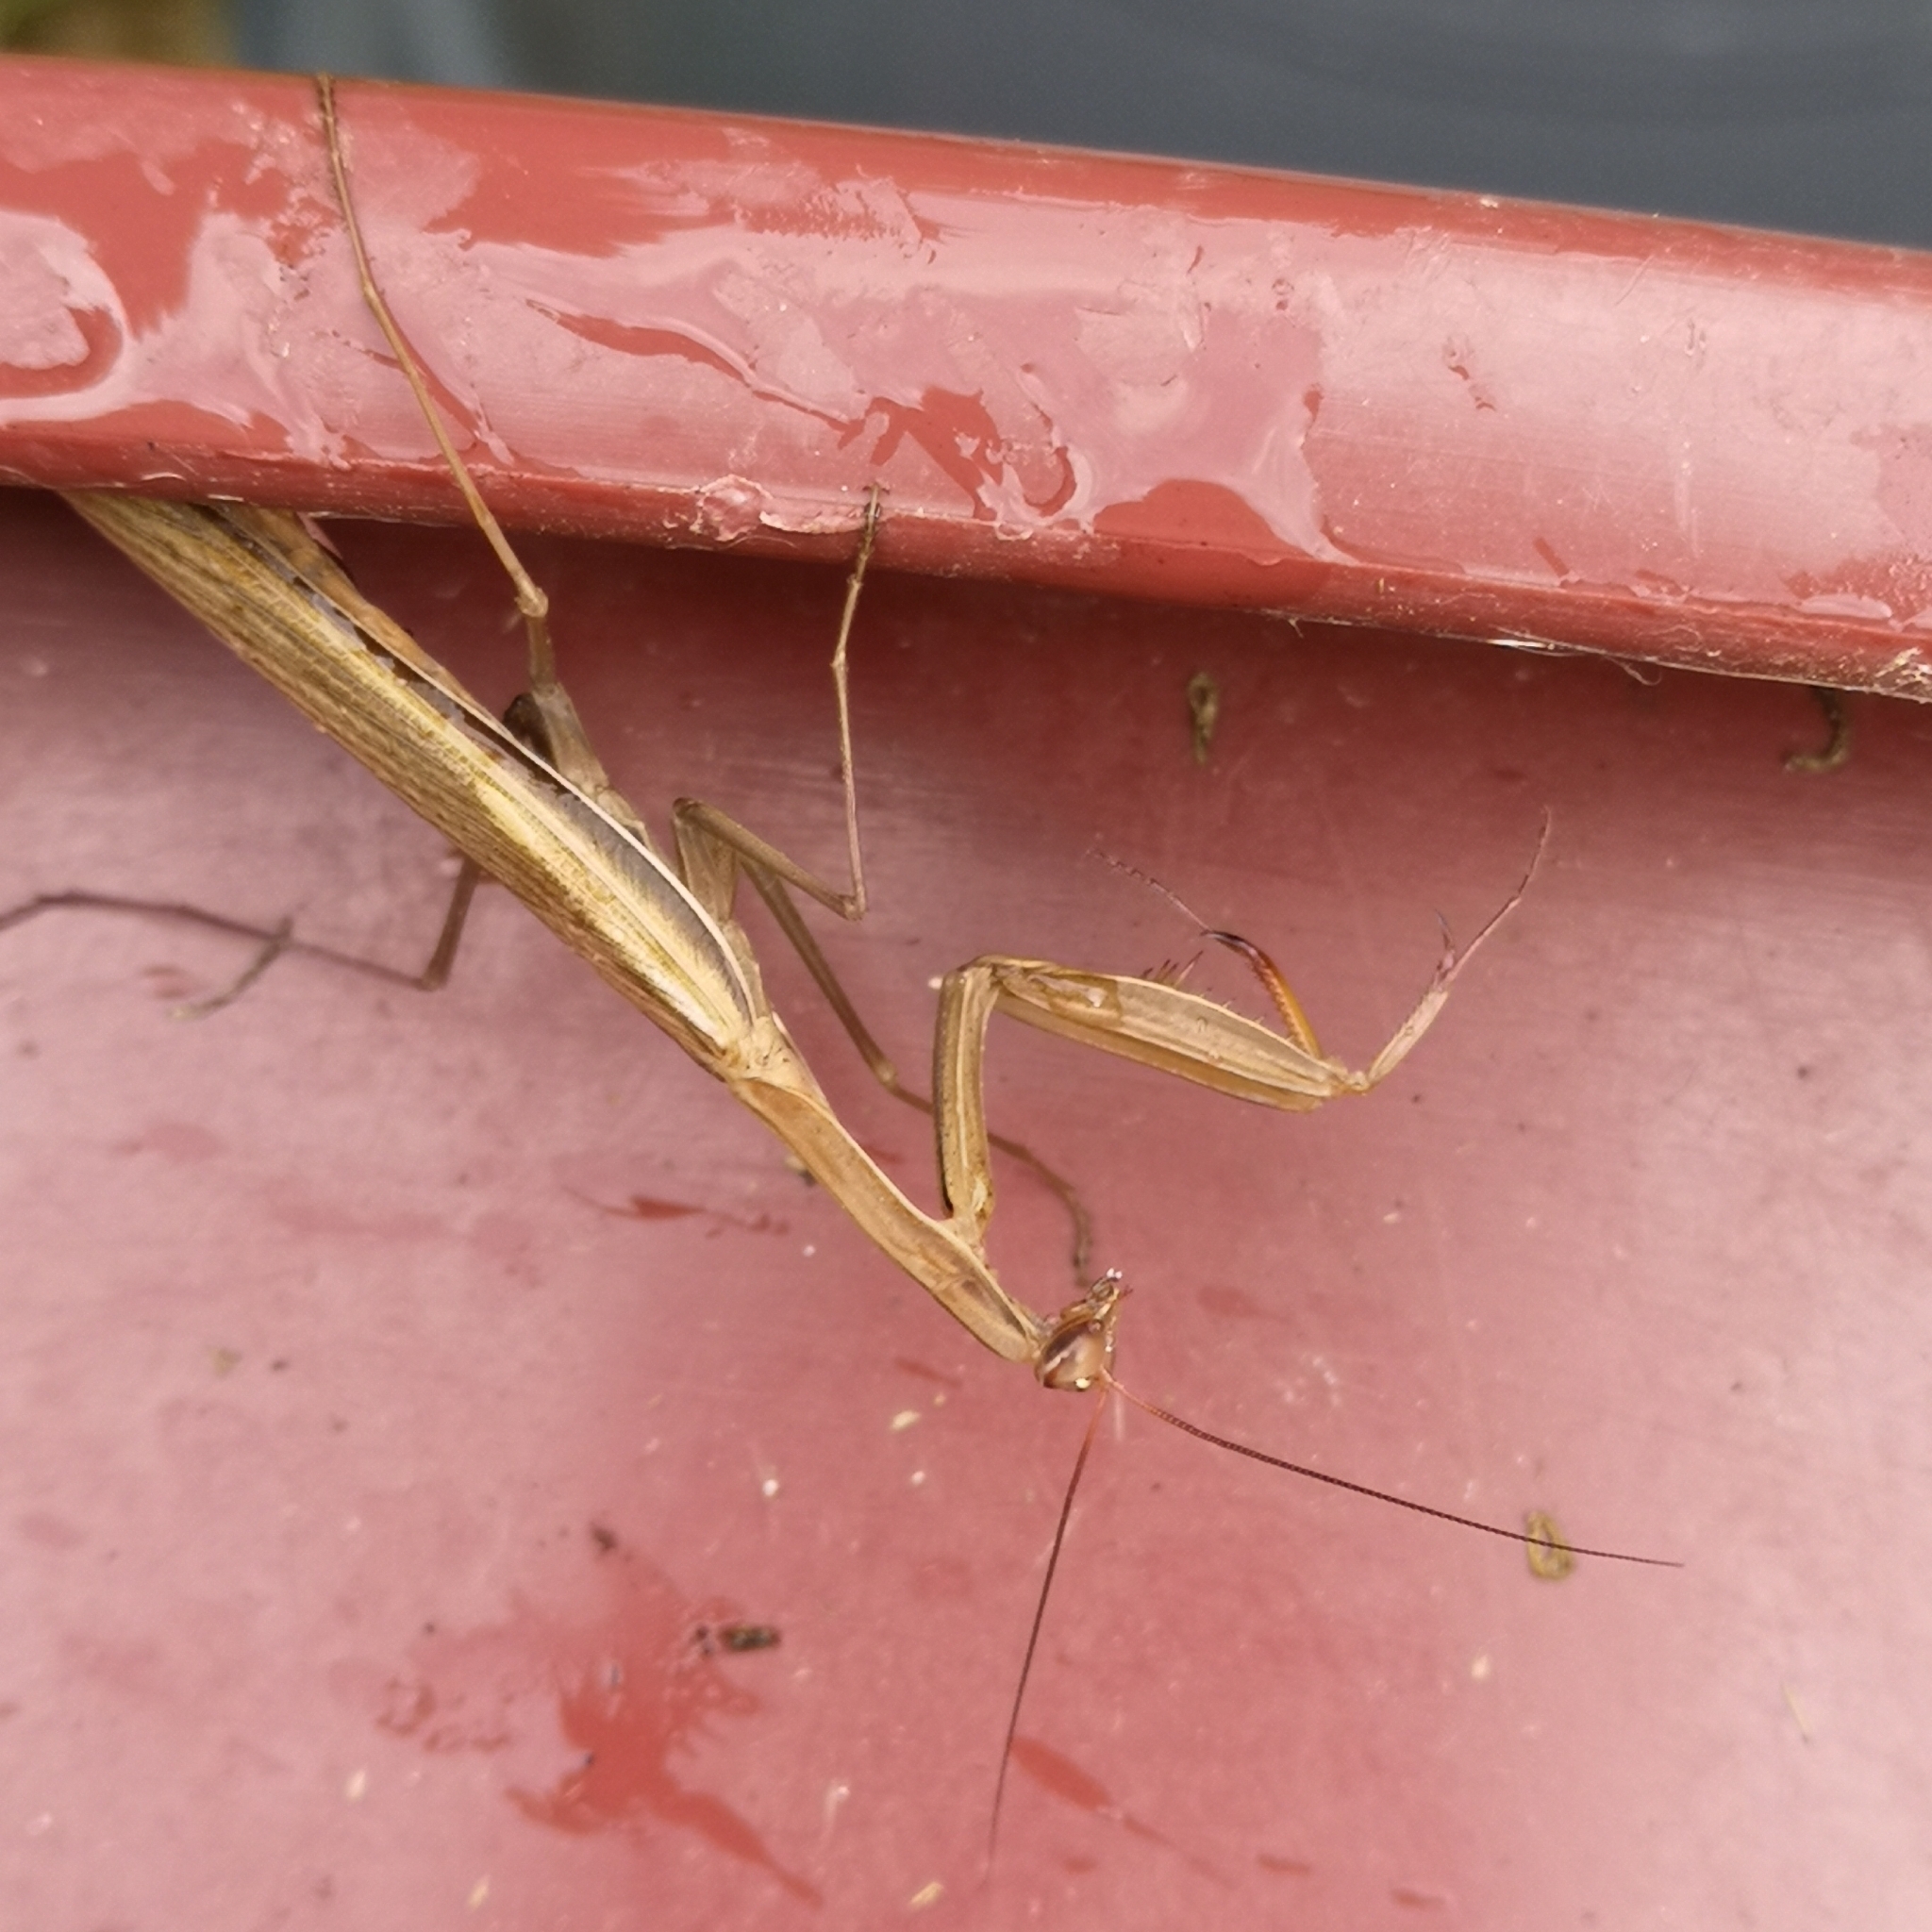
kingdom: Animalia
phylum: Arthropoda
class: Insecta
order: Mantodea
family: Mantidae
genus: Mantis
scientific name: Mantis religiosa
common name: Praying mantis
